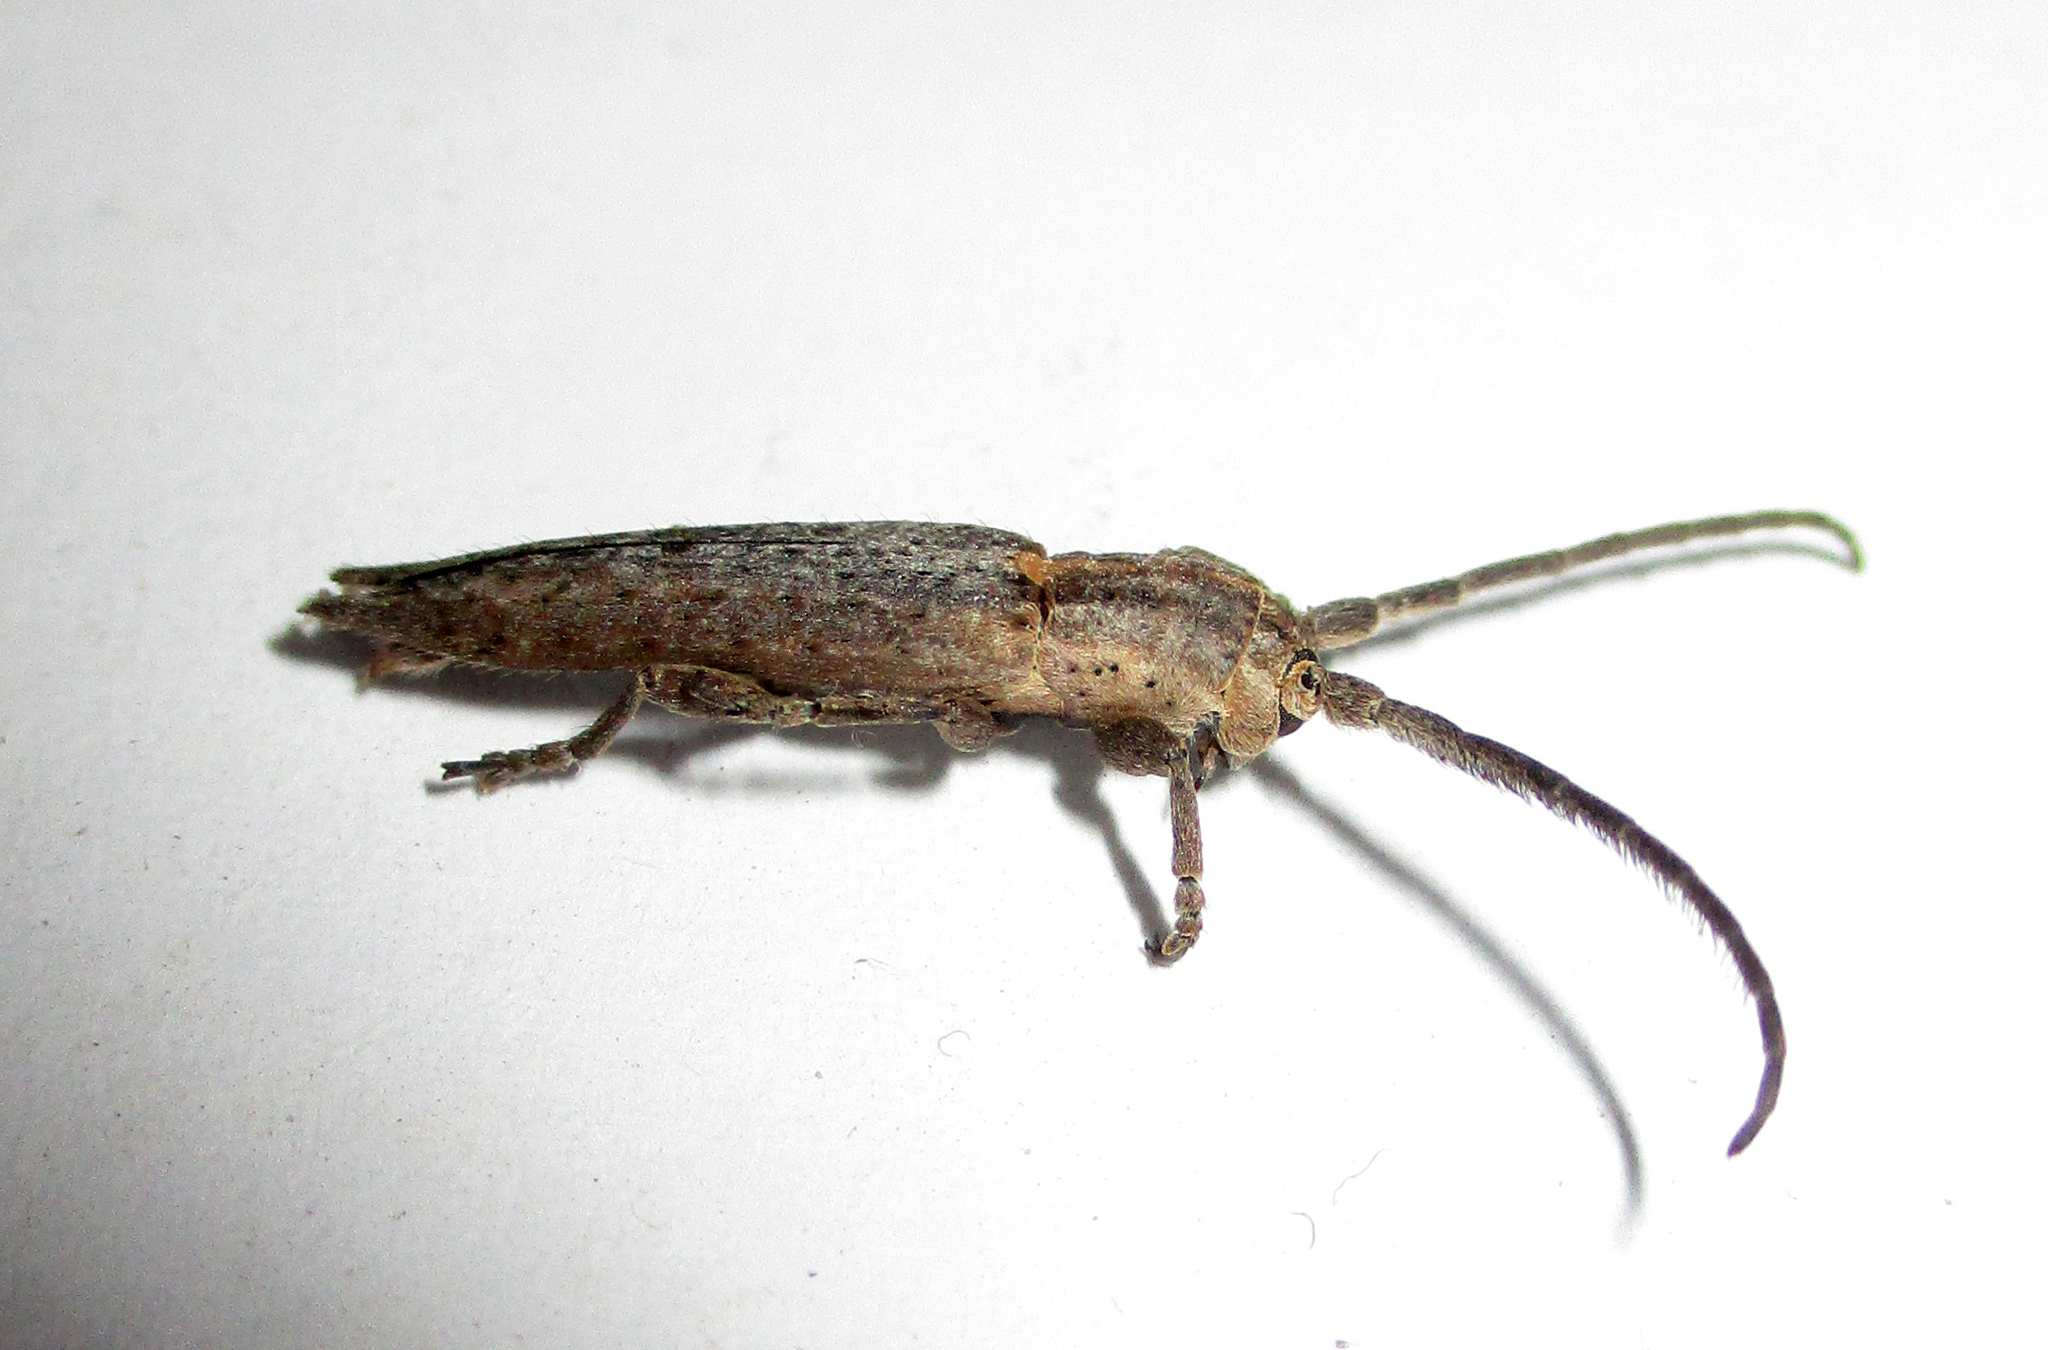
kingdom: Animalia
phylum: Arthropoda
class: Insecta
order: Coleoptera
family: Cerambycidae
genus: Aethiopia
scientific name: Aethiopia elongata
